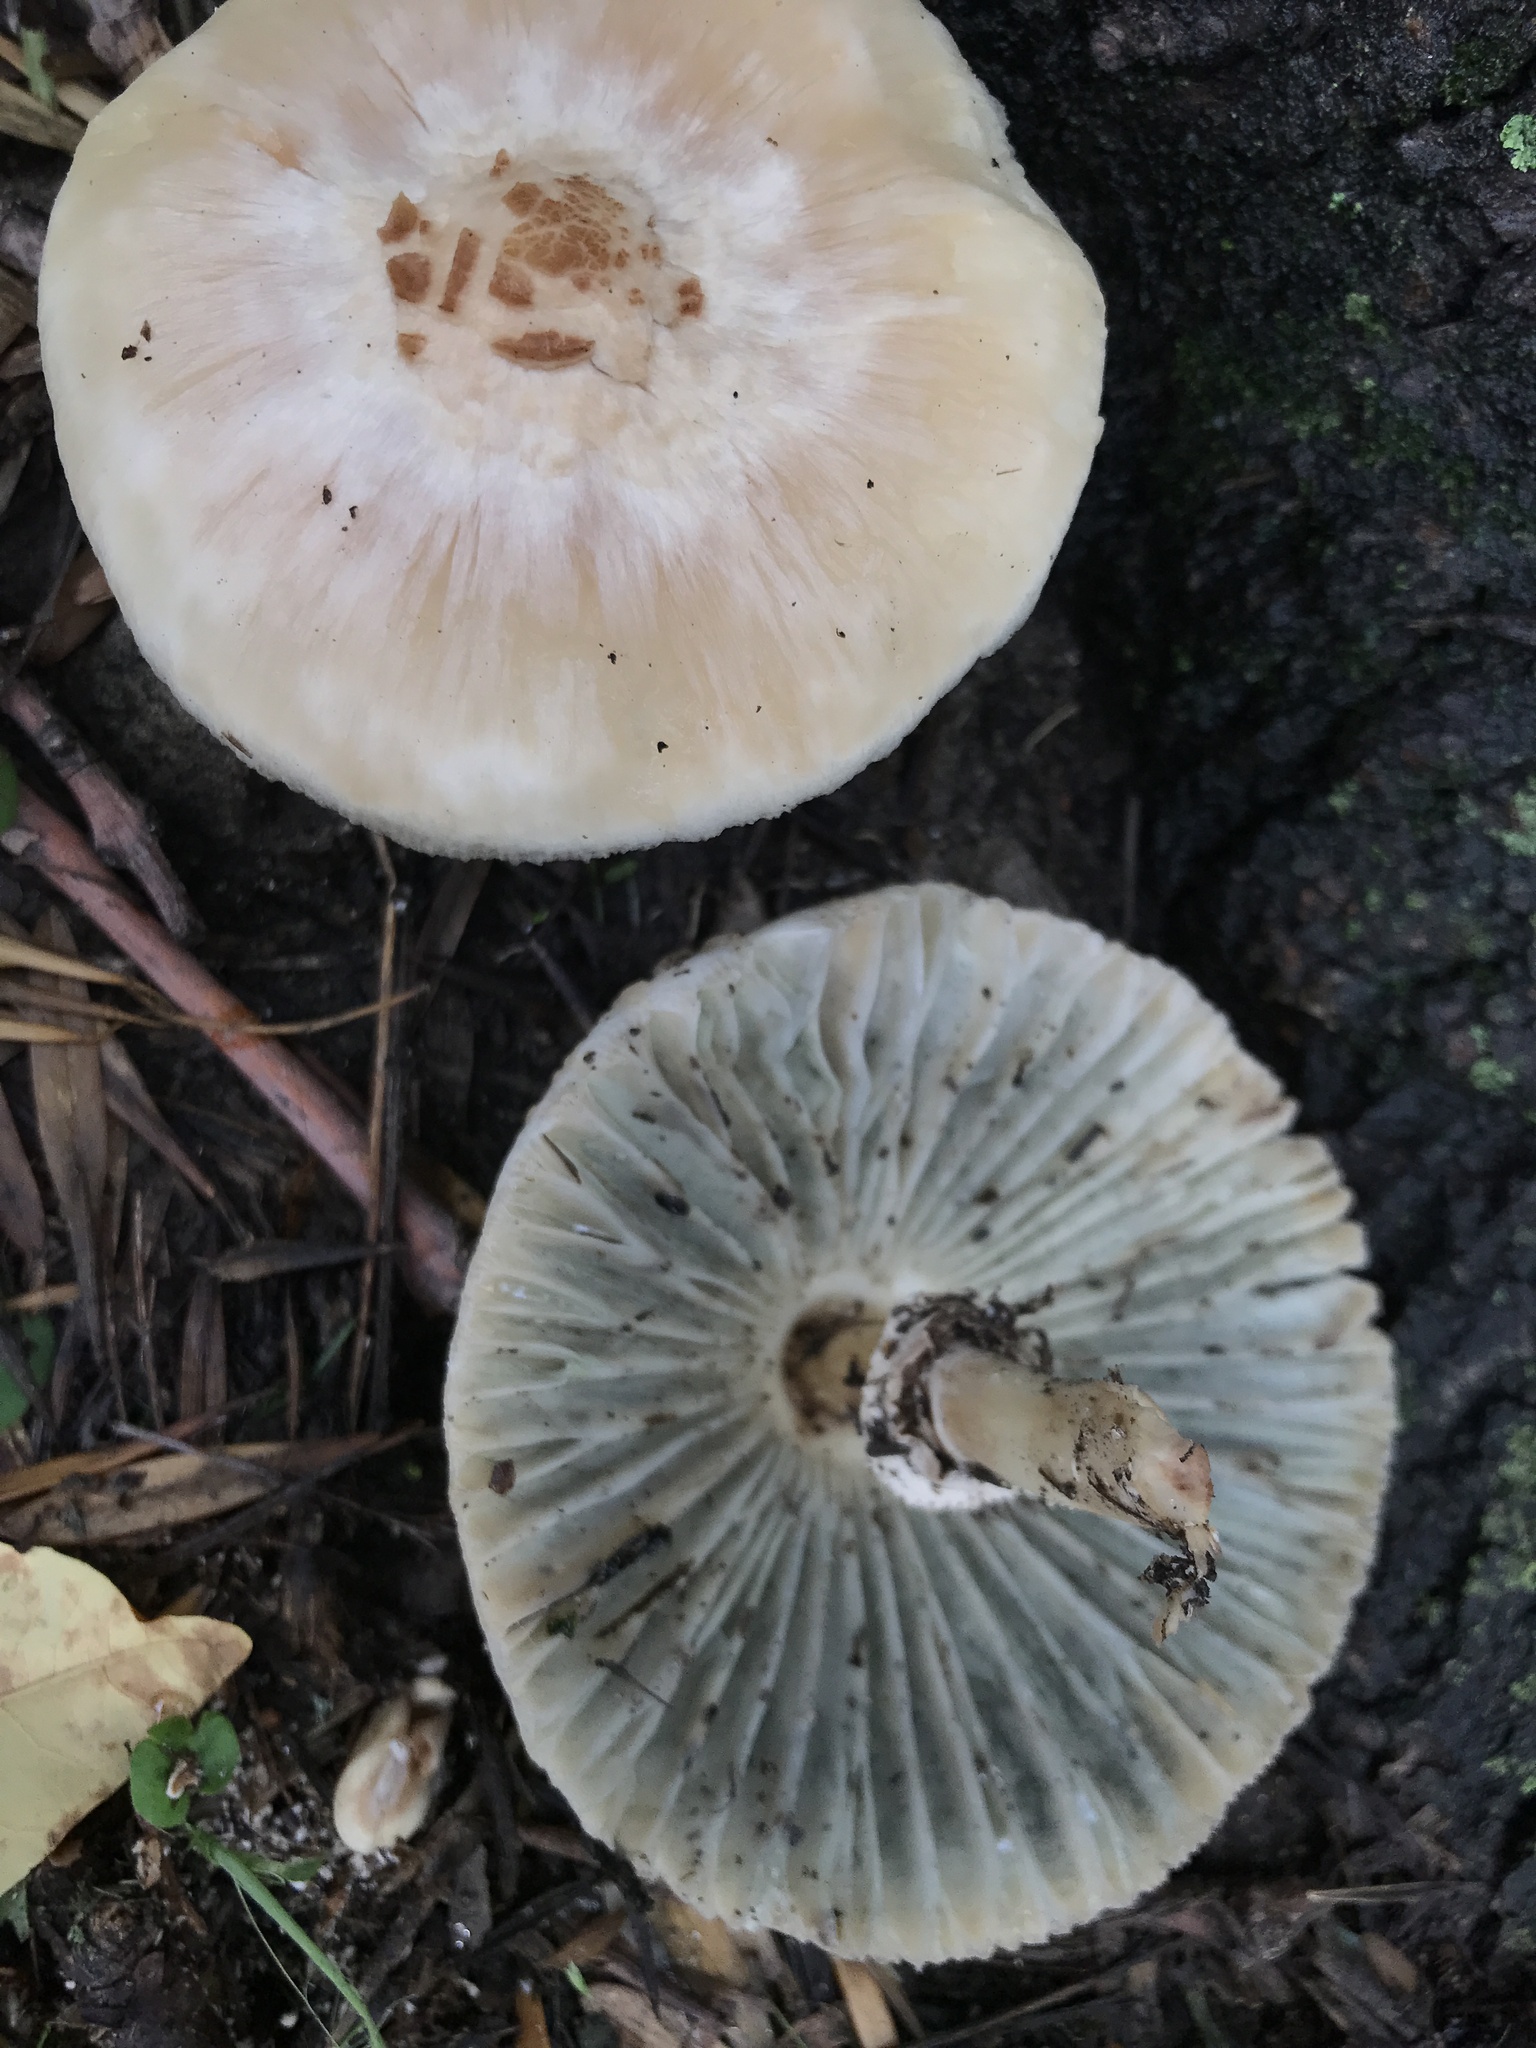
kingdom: Fungi
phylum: Basidiomycota
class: Agaricomycetes
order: Agaricales
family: Agaricaceae
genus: Chlorophyllum
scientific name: Chlorophyllum molybdites
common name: False parasol
